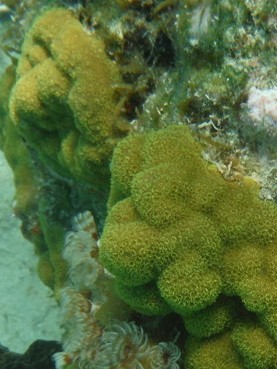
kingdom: Animalia
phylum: Cnidaria
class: Anthozoa
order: Scleractinia
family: Poritidae
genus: Porites
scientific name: Porites astreoides
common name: Mustard hill coral
